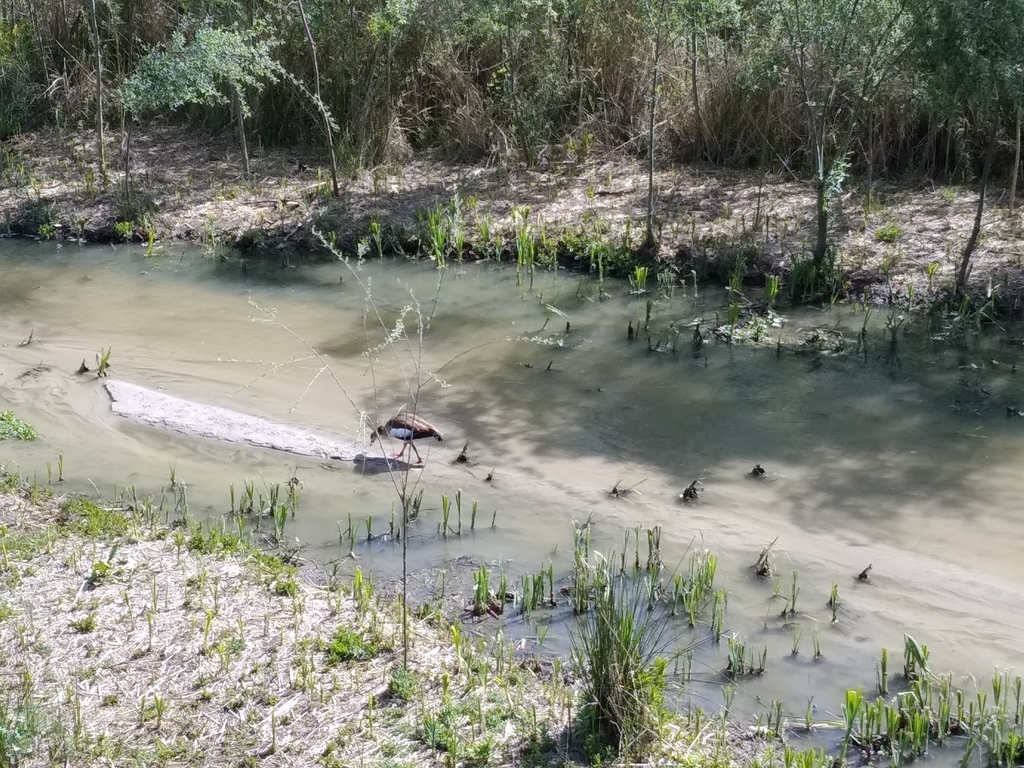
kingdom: Animalia
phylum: Chordata
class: Aves
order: Anseriformes
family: Anatidae
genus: Alopochen
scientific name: Alopochen aegyptiaca
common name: Egyptian goose
